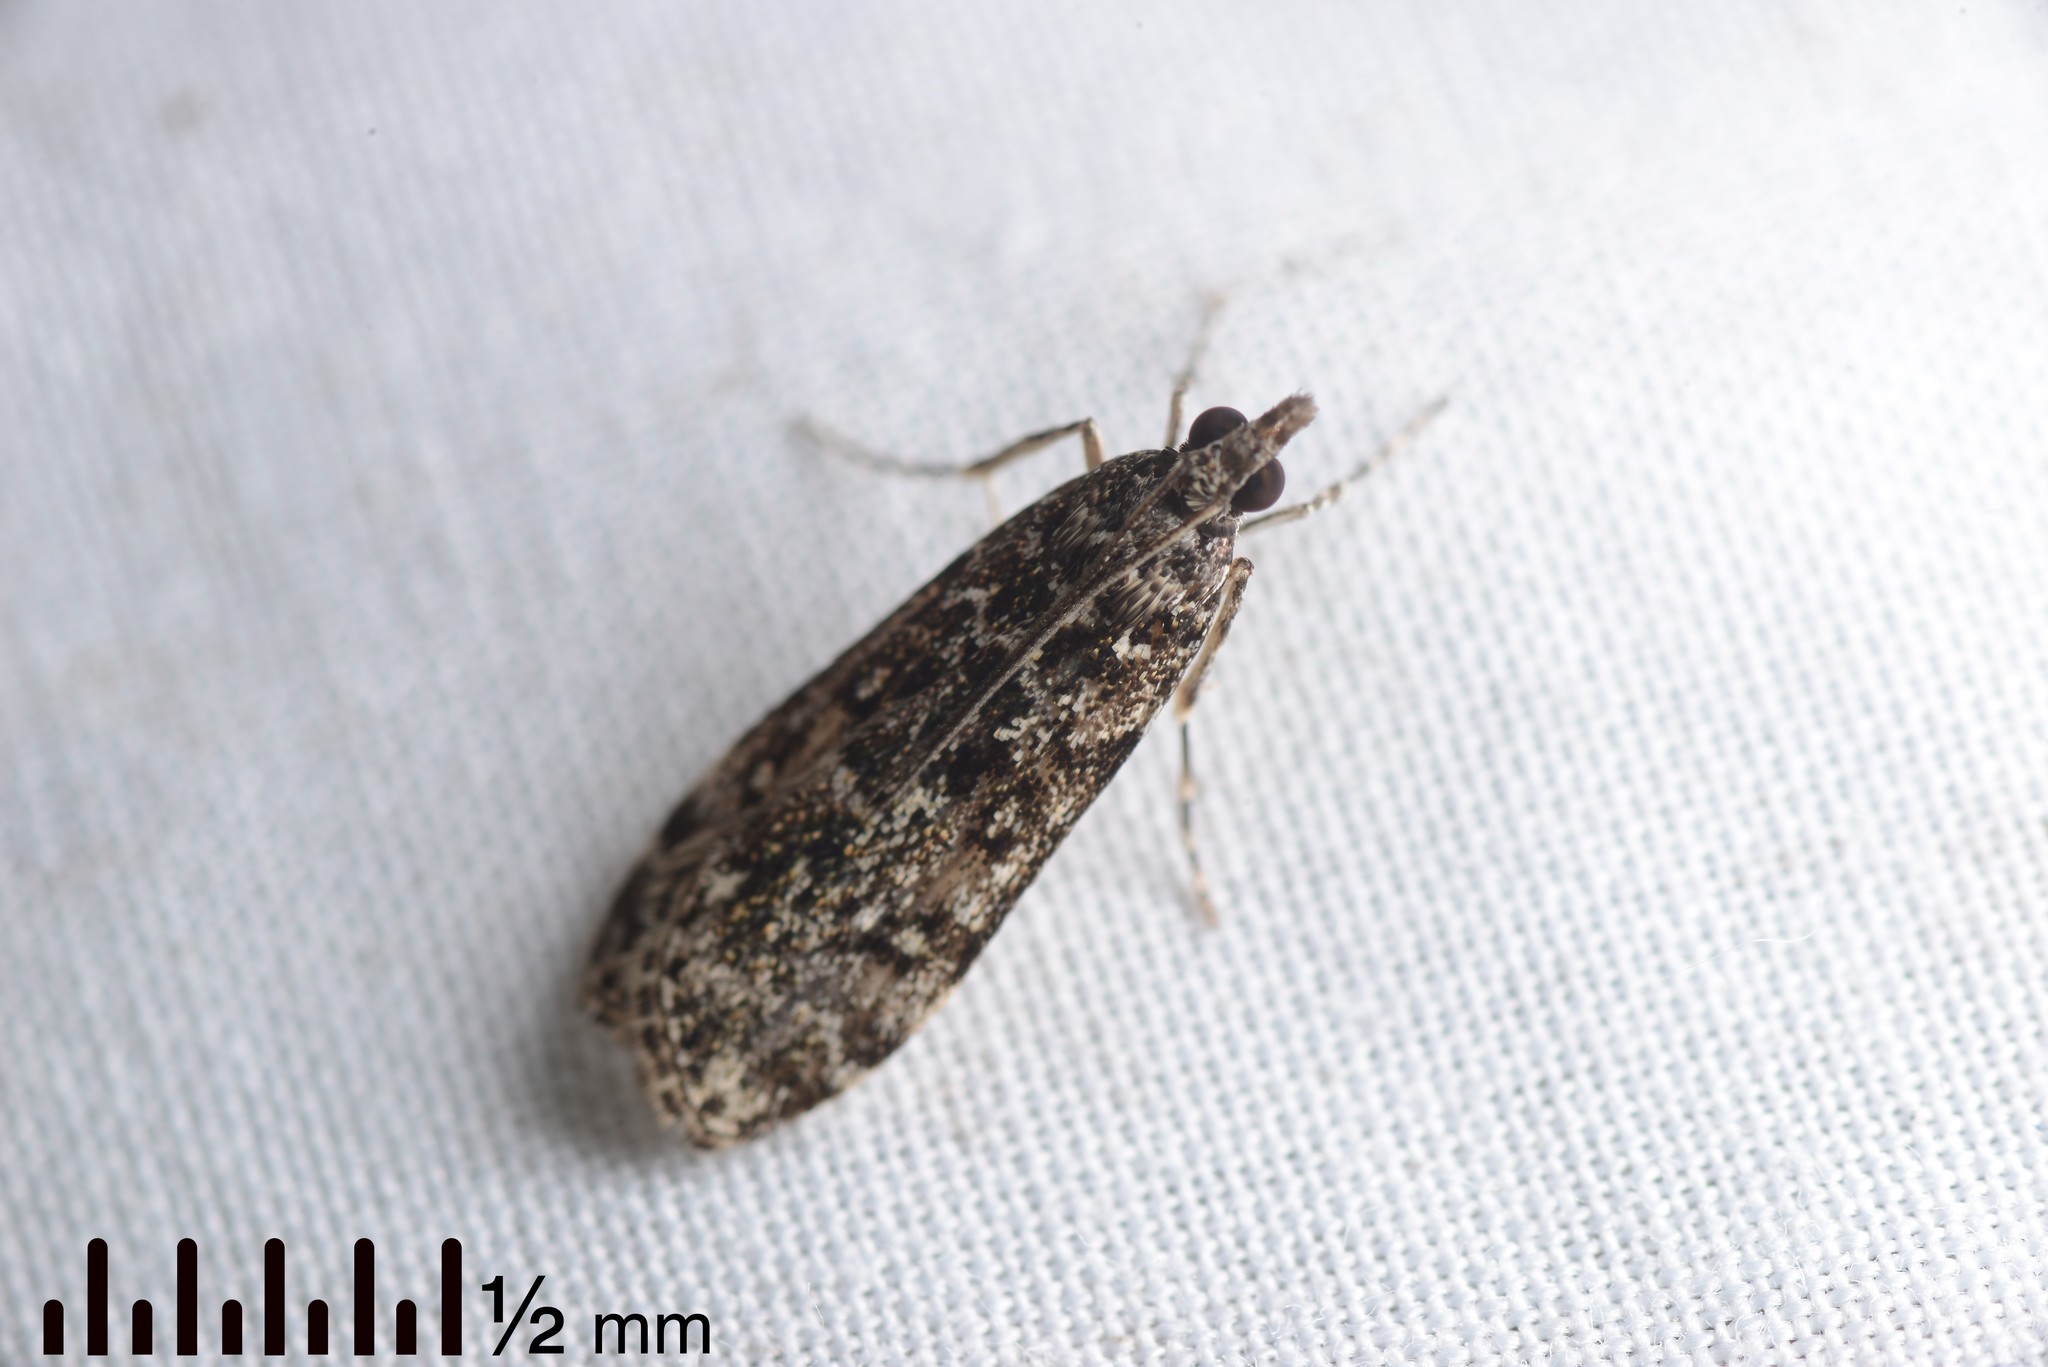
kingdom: Animalia
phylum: Arthropoda
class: Insecta
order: Lepidoptera
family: Crambidae
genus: Eudonia
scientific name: Eudonia philerga
